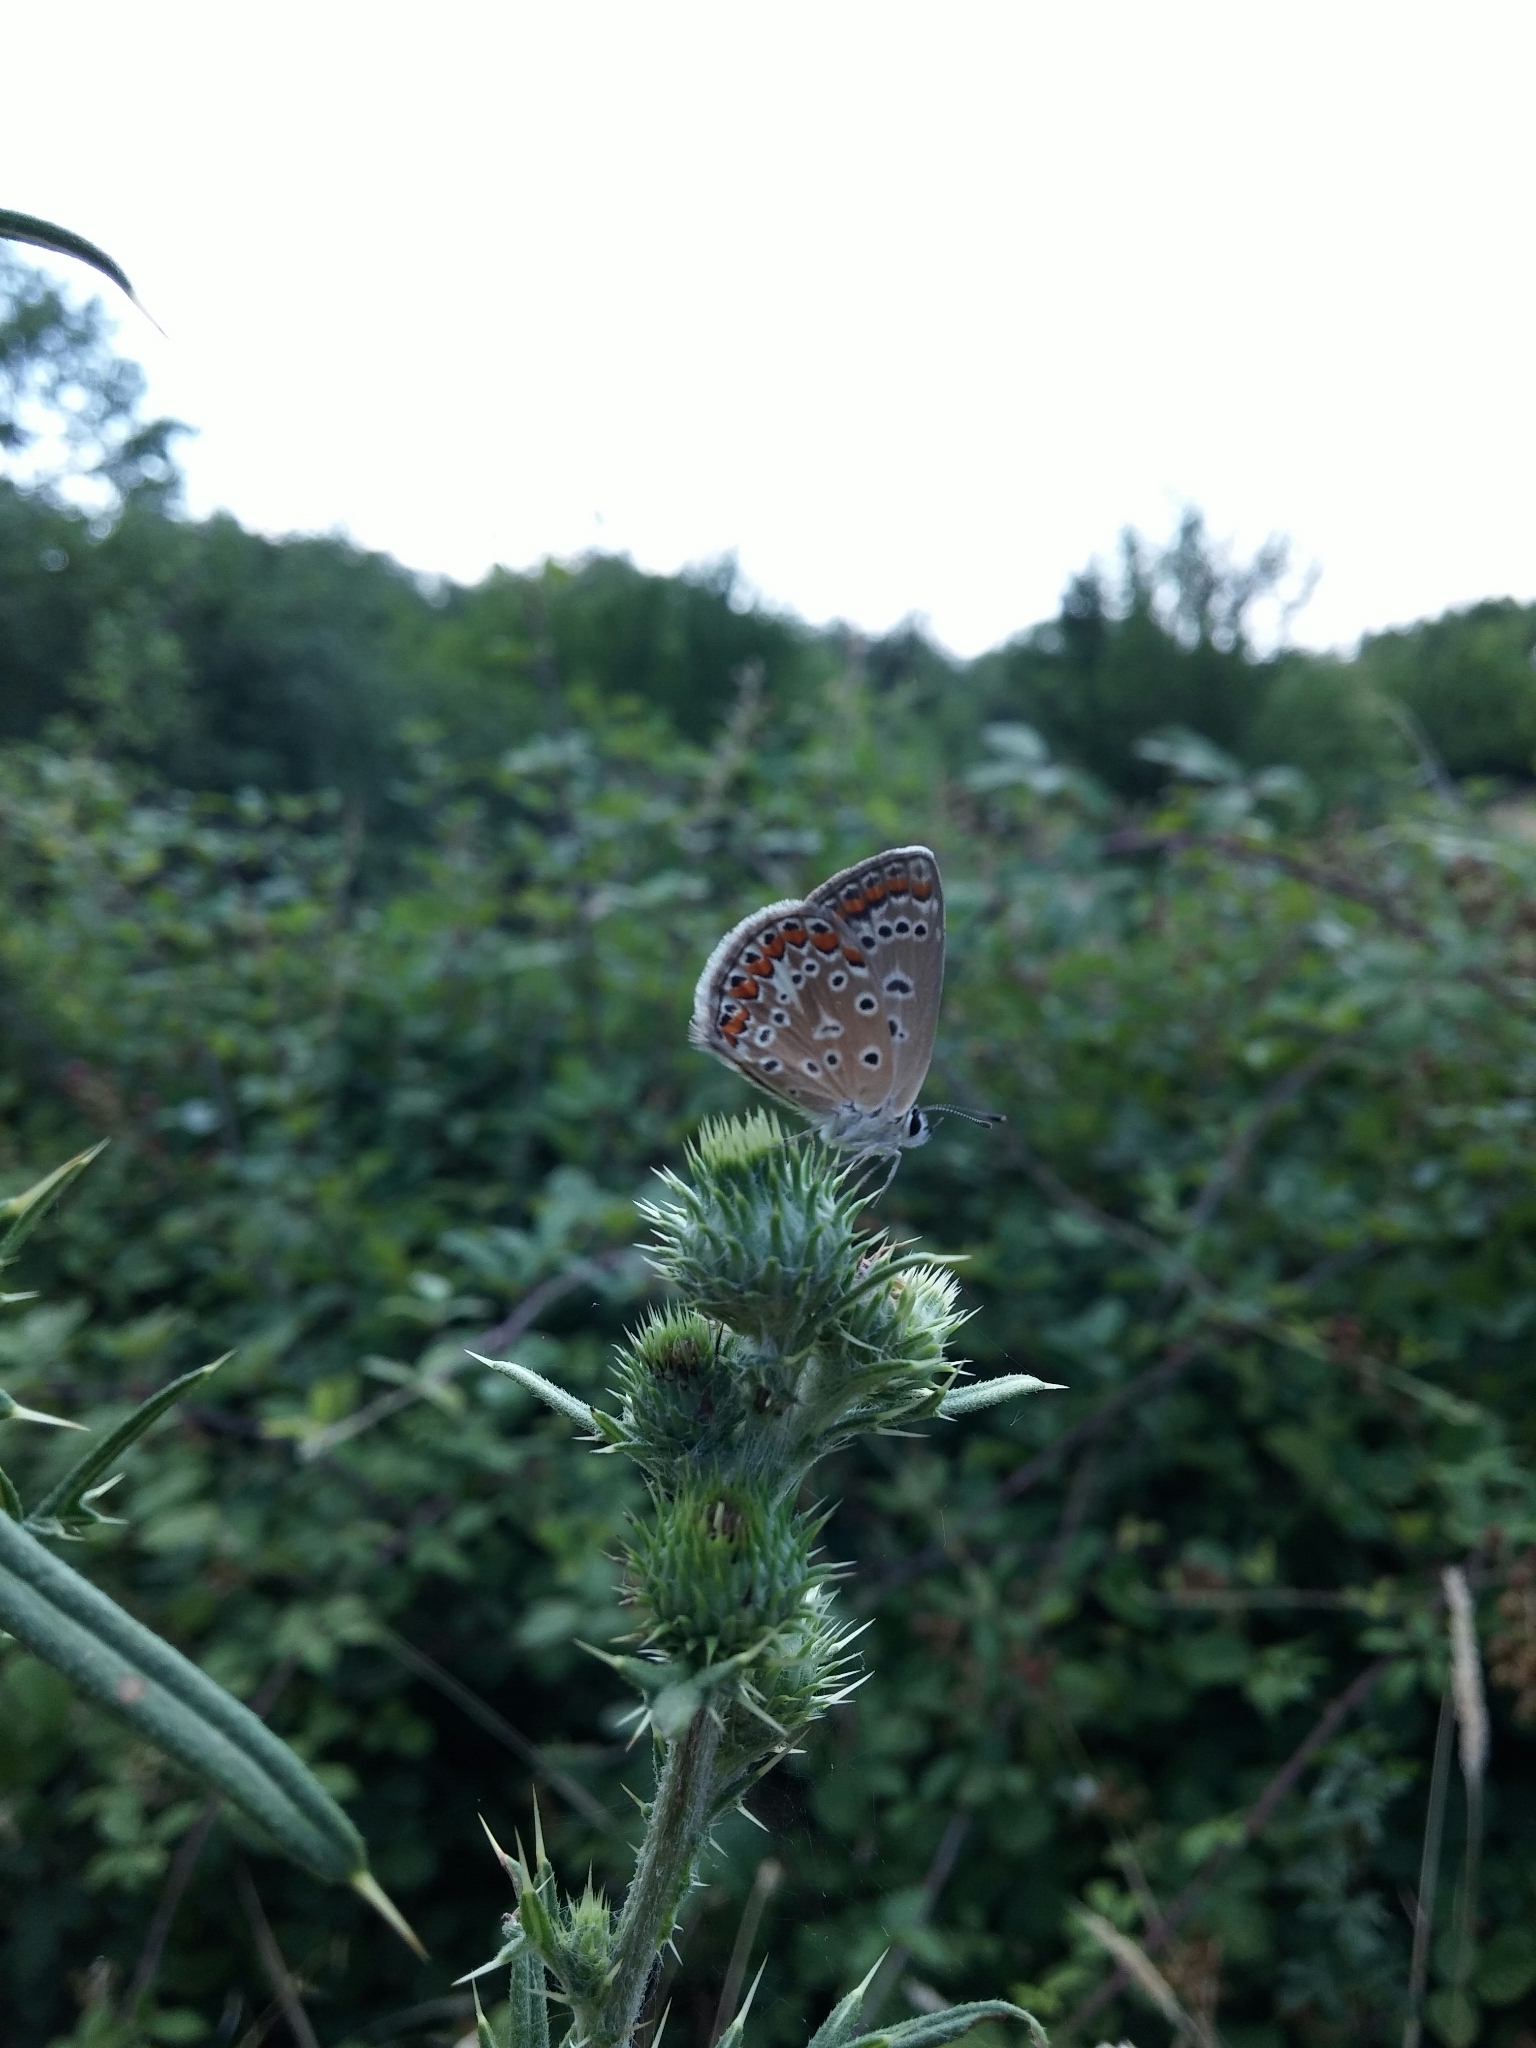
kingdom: Animalia
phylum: Arthropoda
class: Insecta
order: Lepidoptera
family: Lycaenidae
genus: Polyommatus
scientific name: Polyommatus icarus
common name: Common blue
